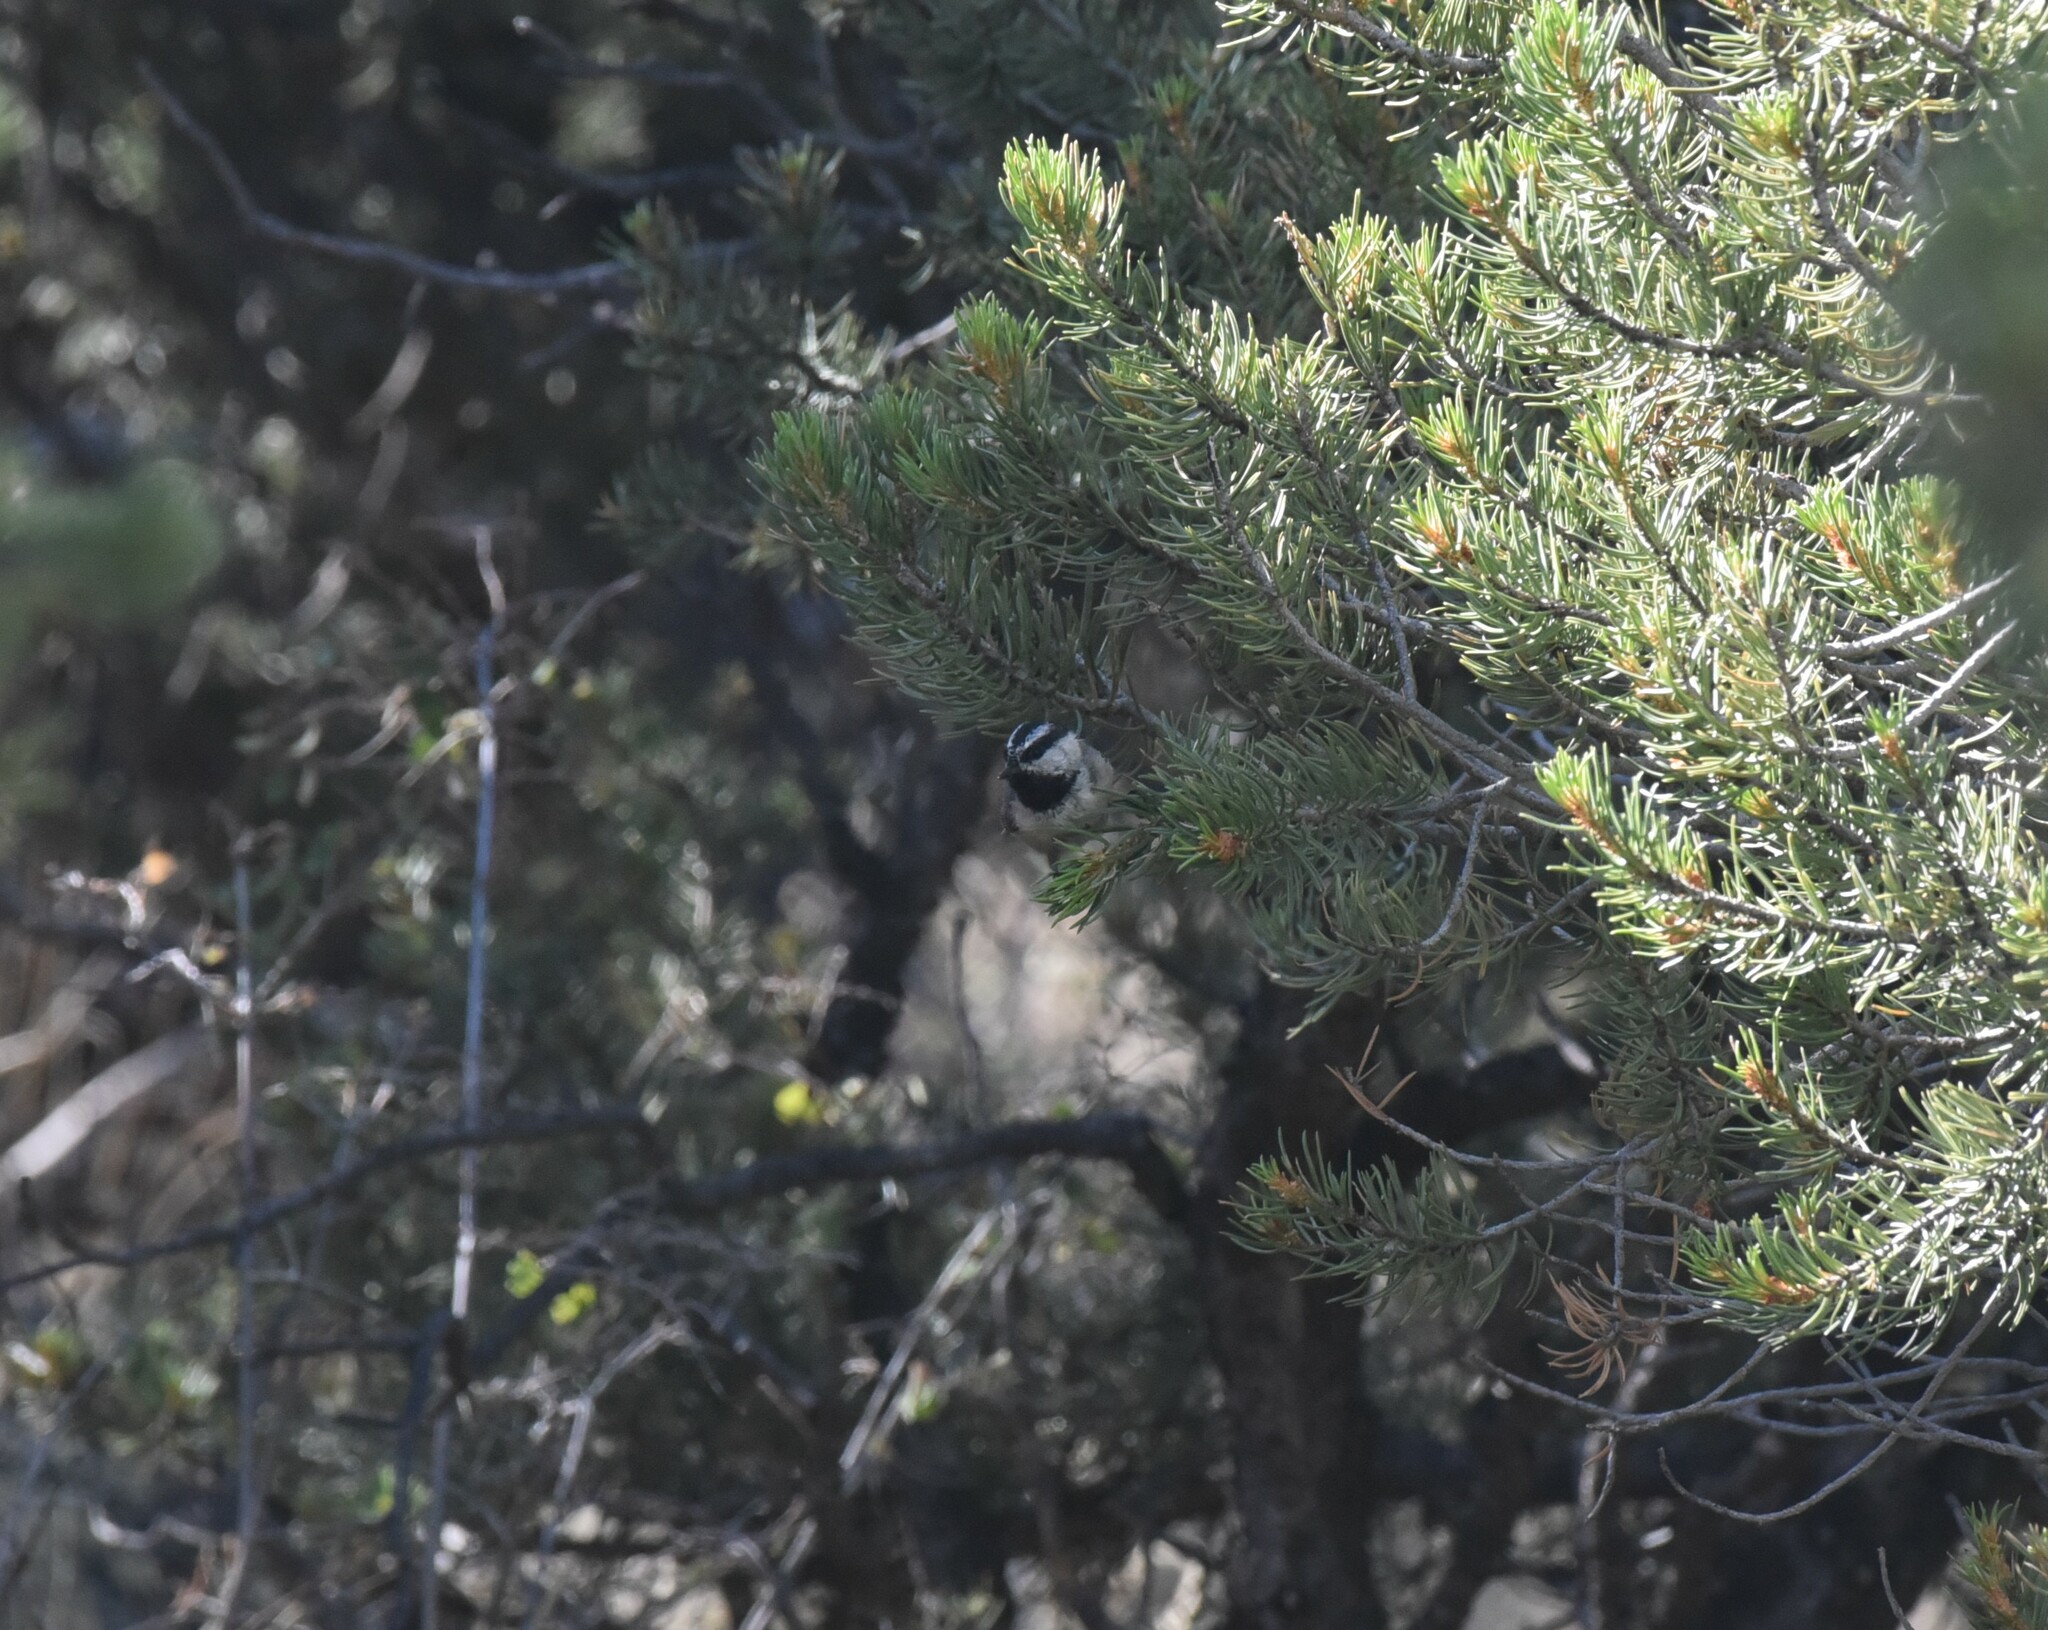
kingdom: Animalia
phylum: Chordata
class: Aves
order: Passeriformes
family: Paridae
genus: Poecile
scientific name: Poecile gambeli
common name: Mountain chickadee
